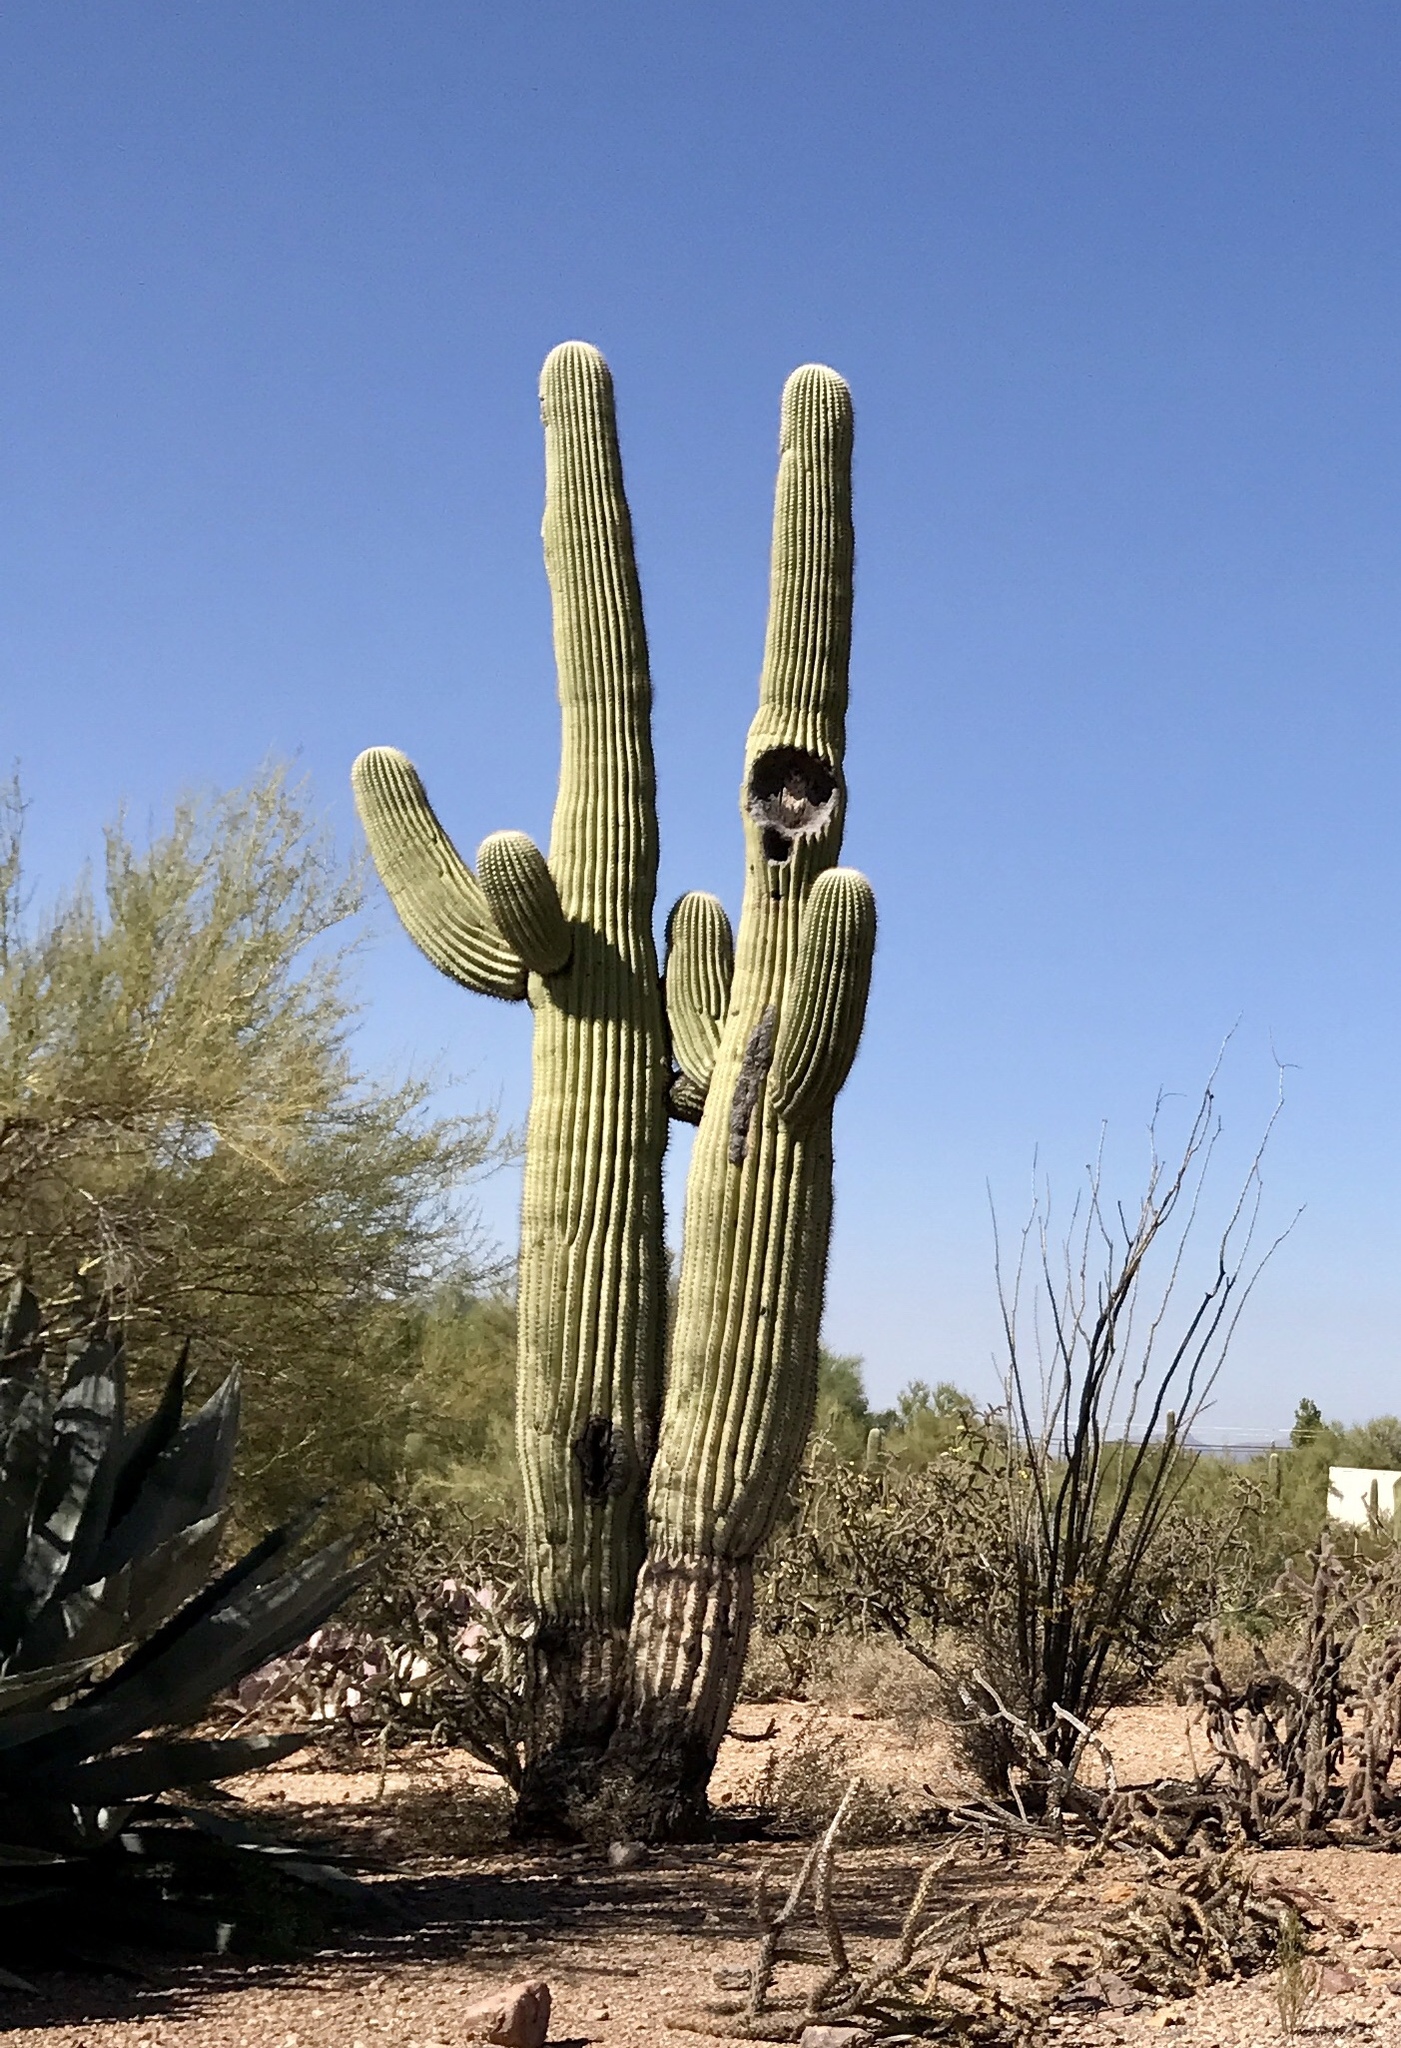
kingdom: Plantae
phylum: Tracheophyta
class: Magnoliopsida
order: Caryophyllales
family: Cactaceae
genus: Carnegiea
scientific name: Carnegiea gigantea
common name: Saguaro
